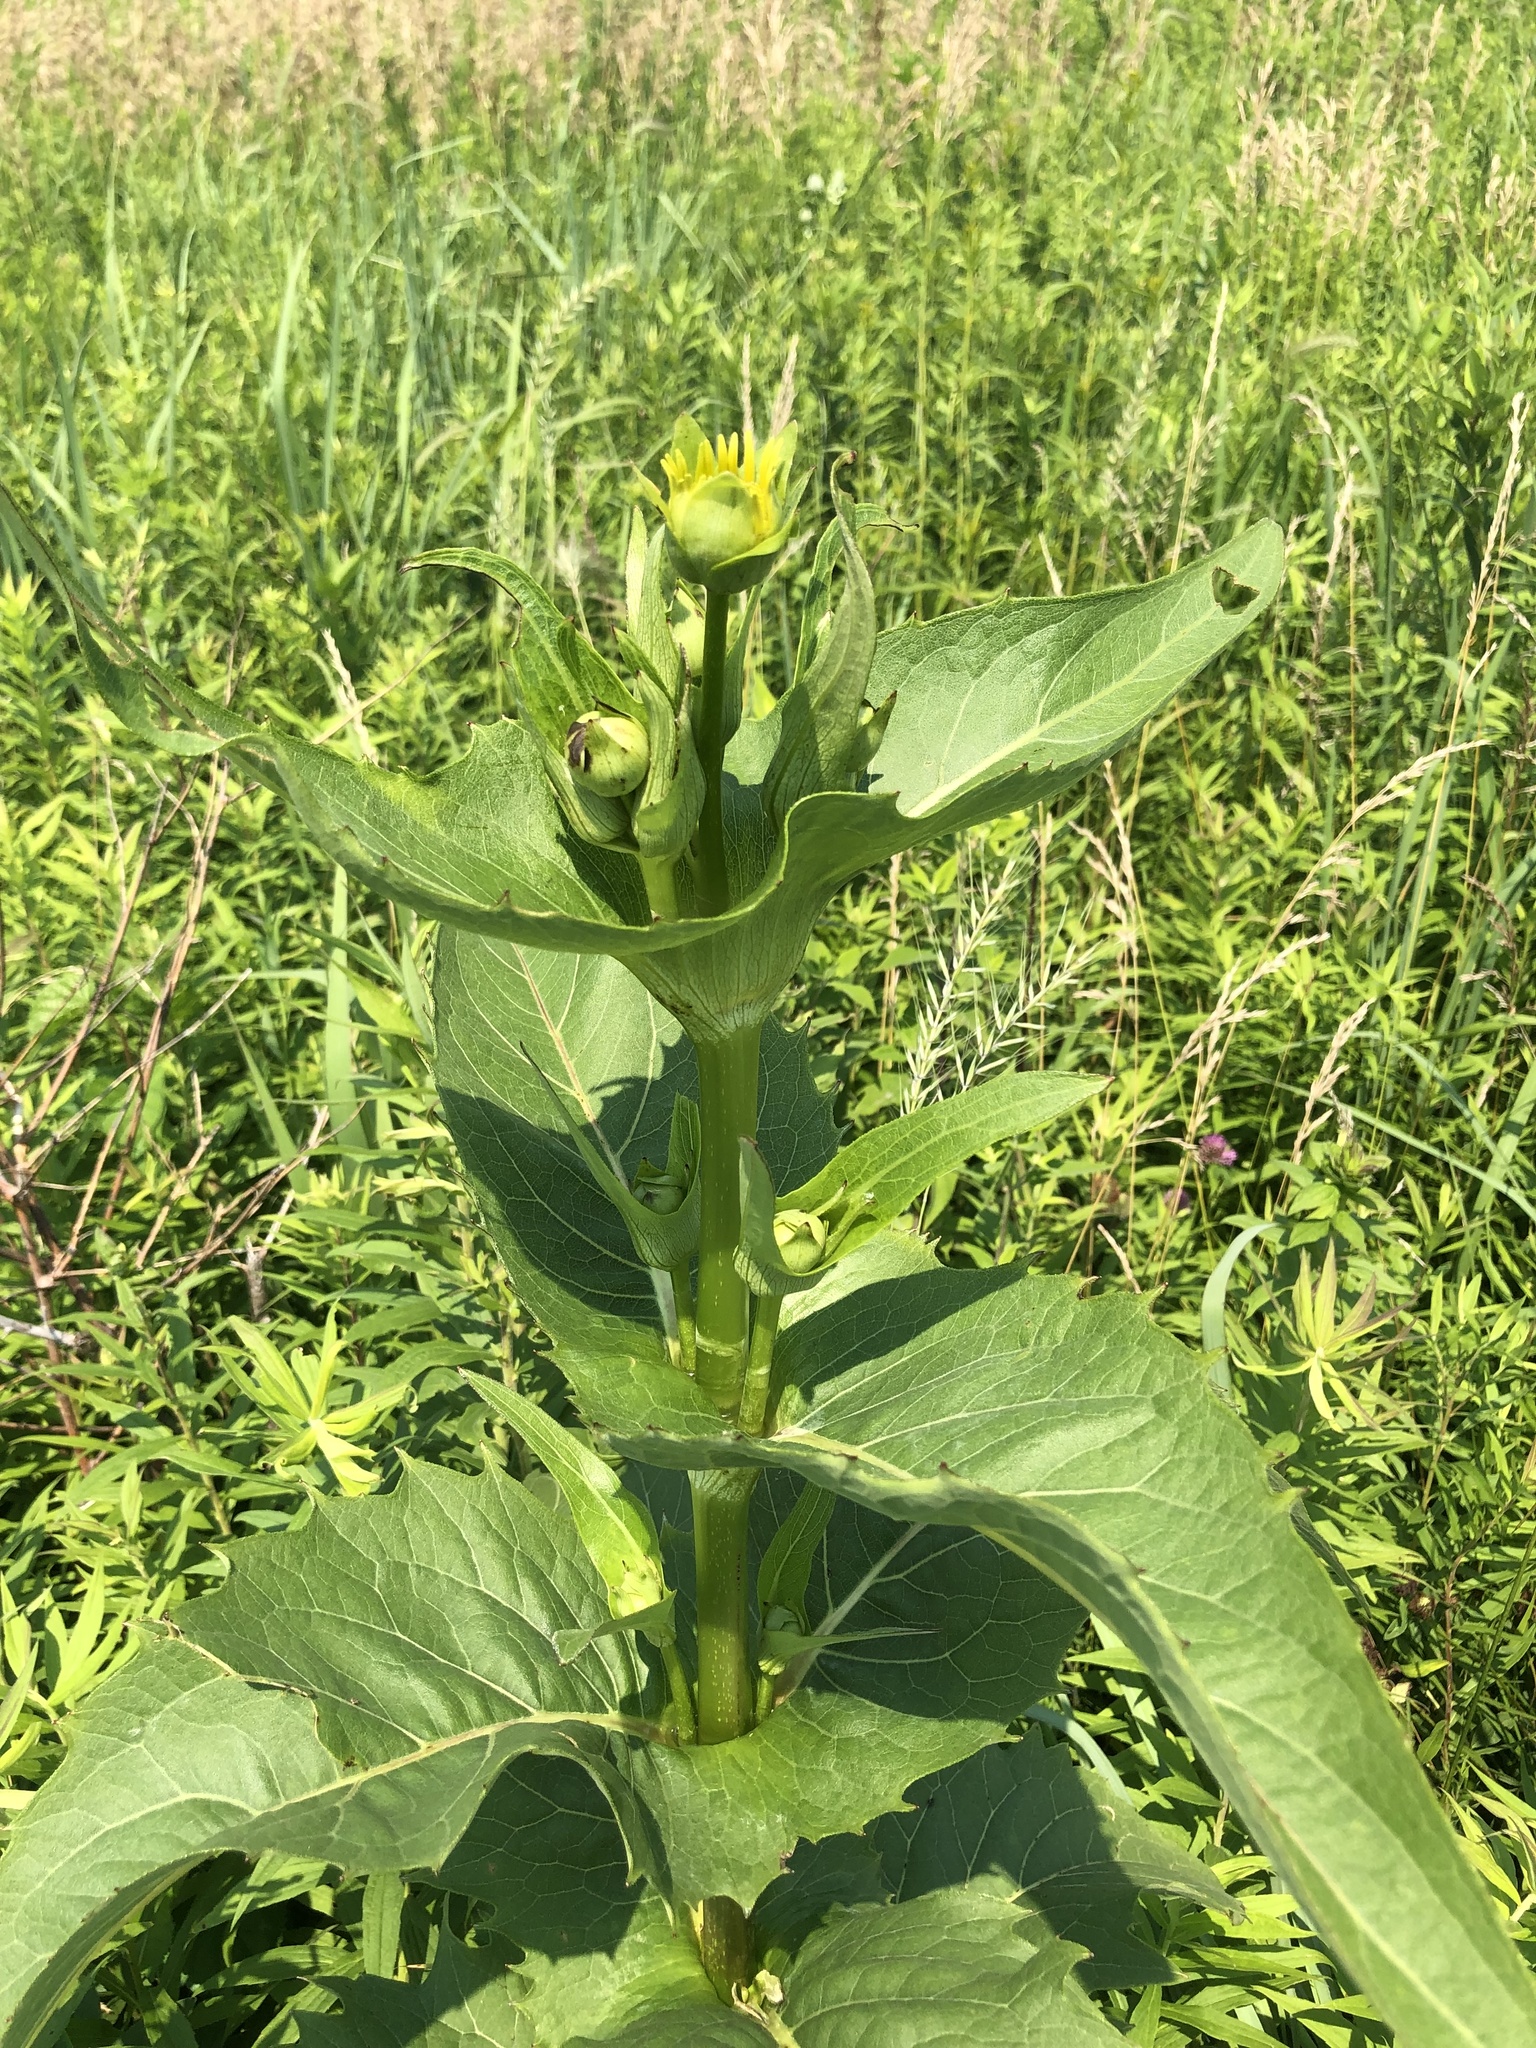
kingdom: Plantae
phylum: Tracheophyta
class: Magnoliopsida
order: Asterales
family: Asteraceae
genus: Silphium
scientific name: Silphium perfoliatum
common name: Cup-plant
